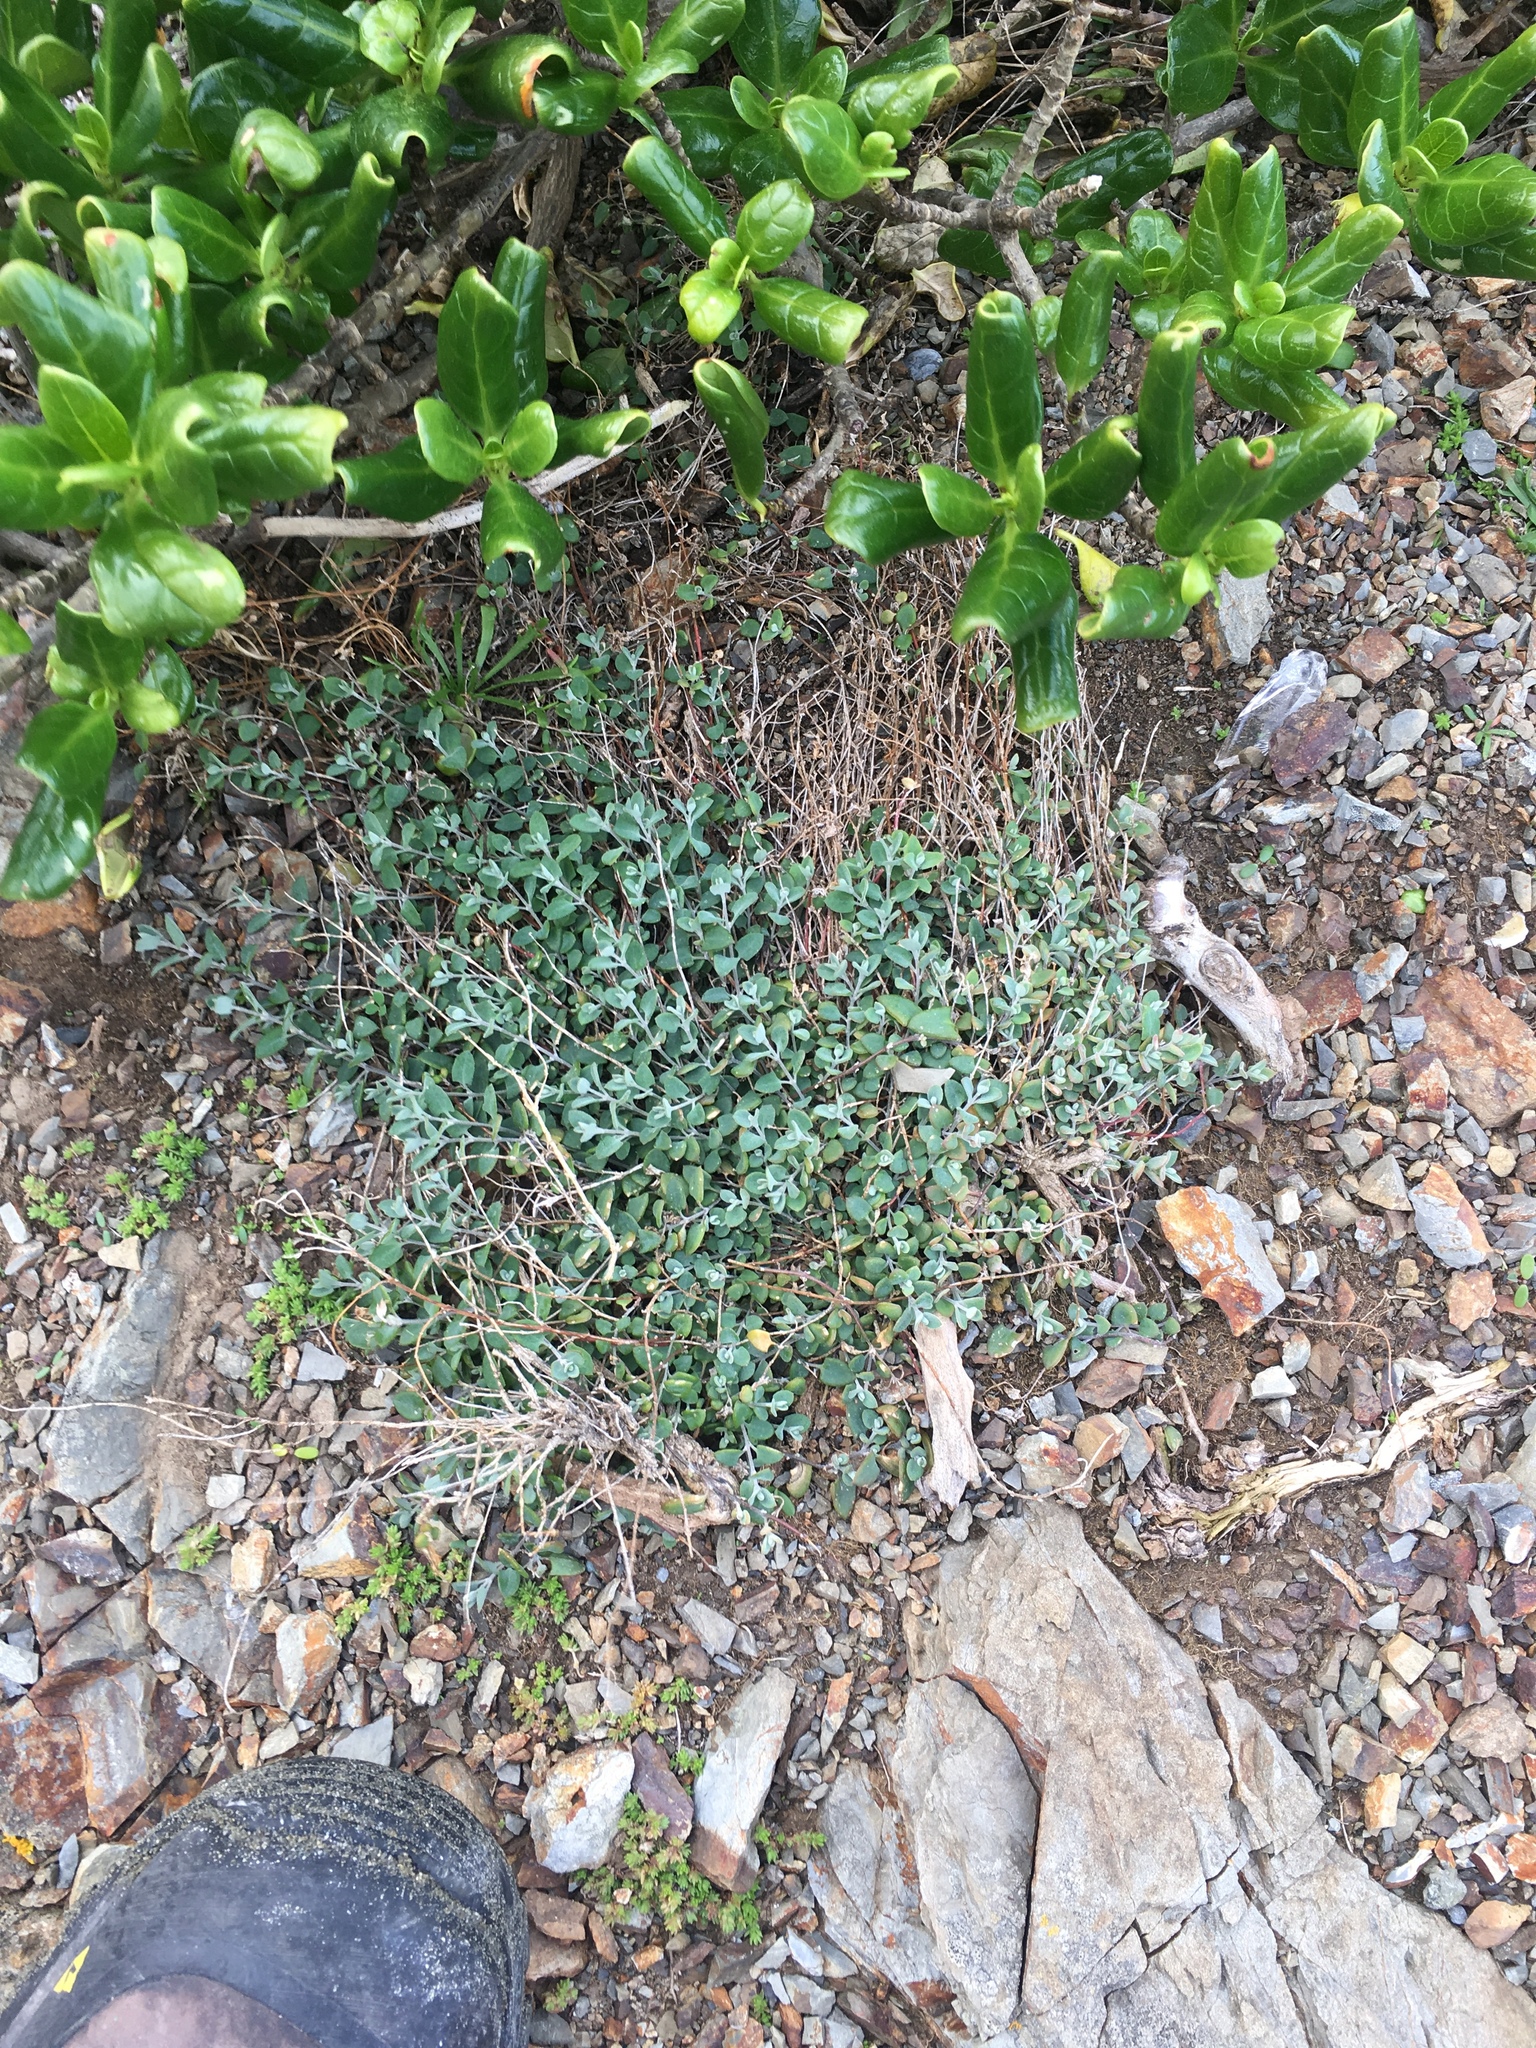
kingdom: Plantae
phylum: Tracheophyta
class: Magnoliopsida
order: Caryophyllales
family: Amaranthaceae
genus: Atriplex
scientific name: Atriplex prostrata
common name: Spear-leaved orache
